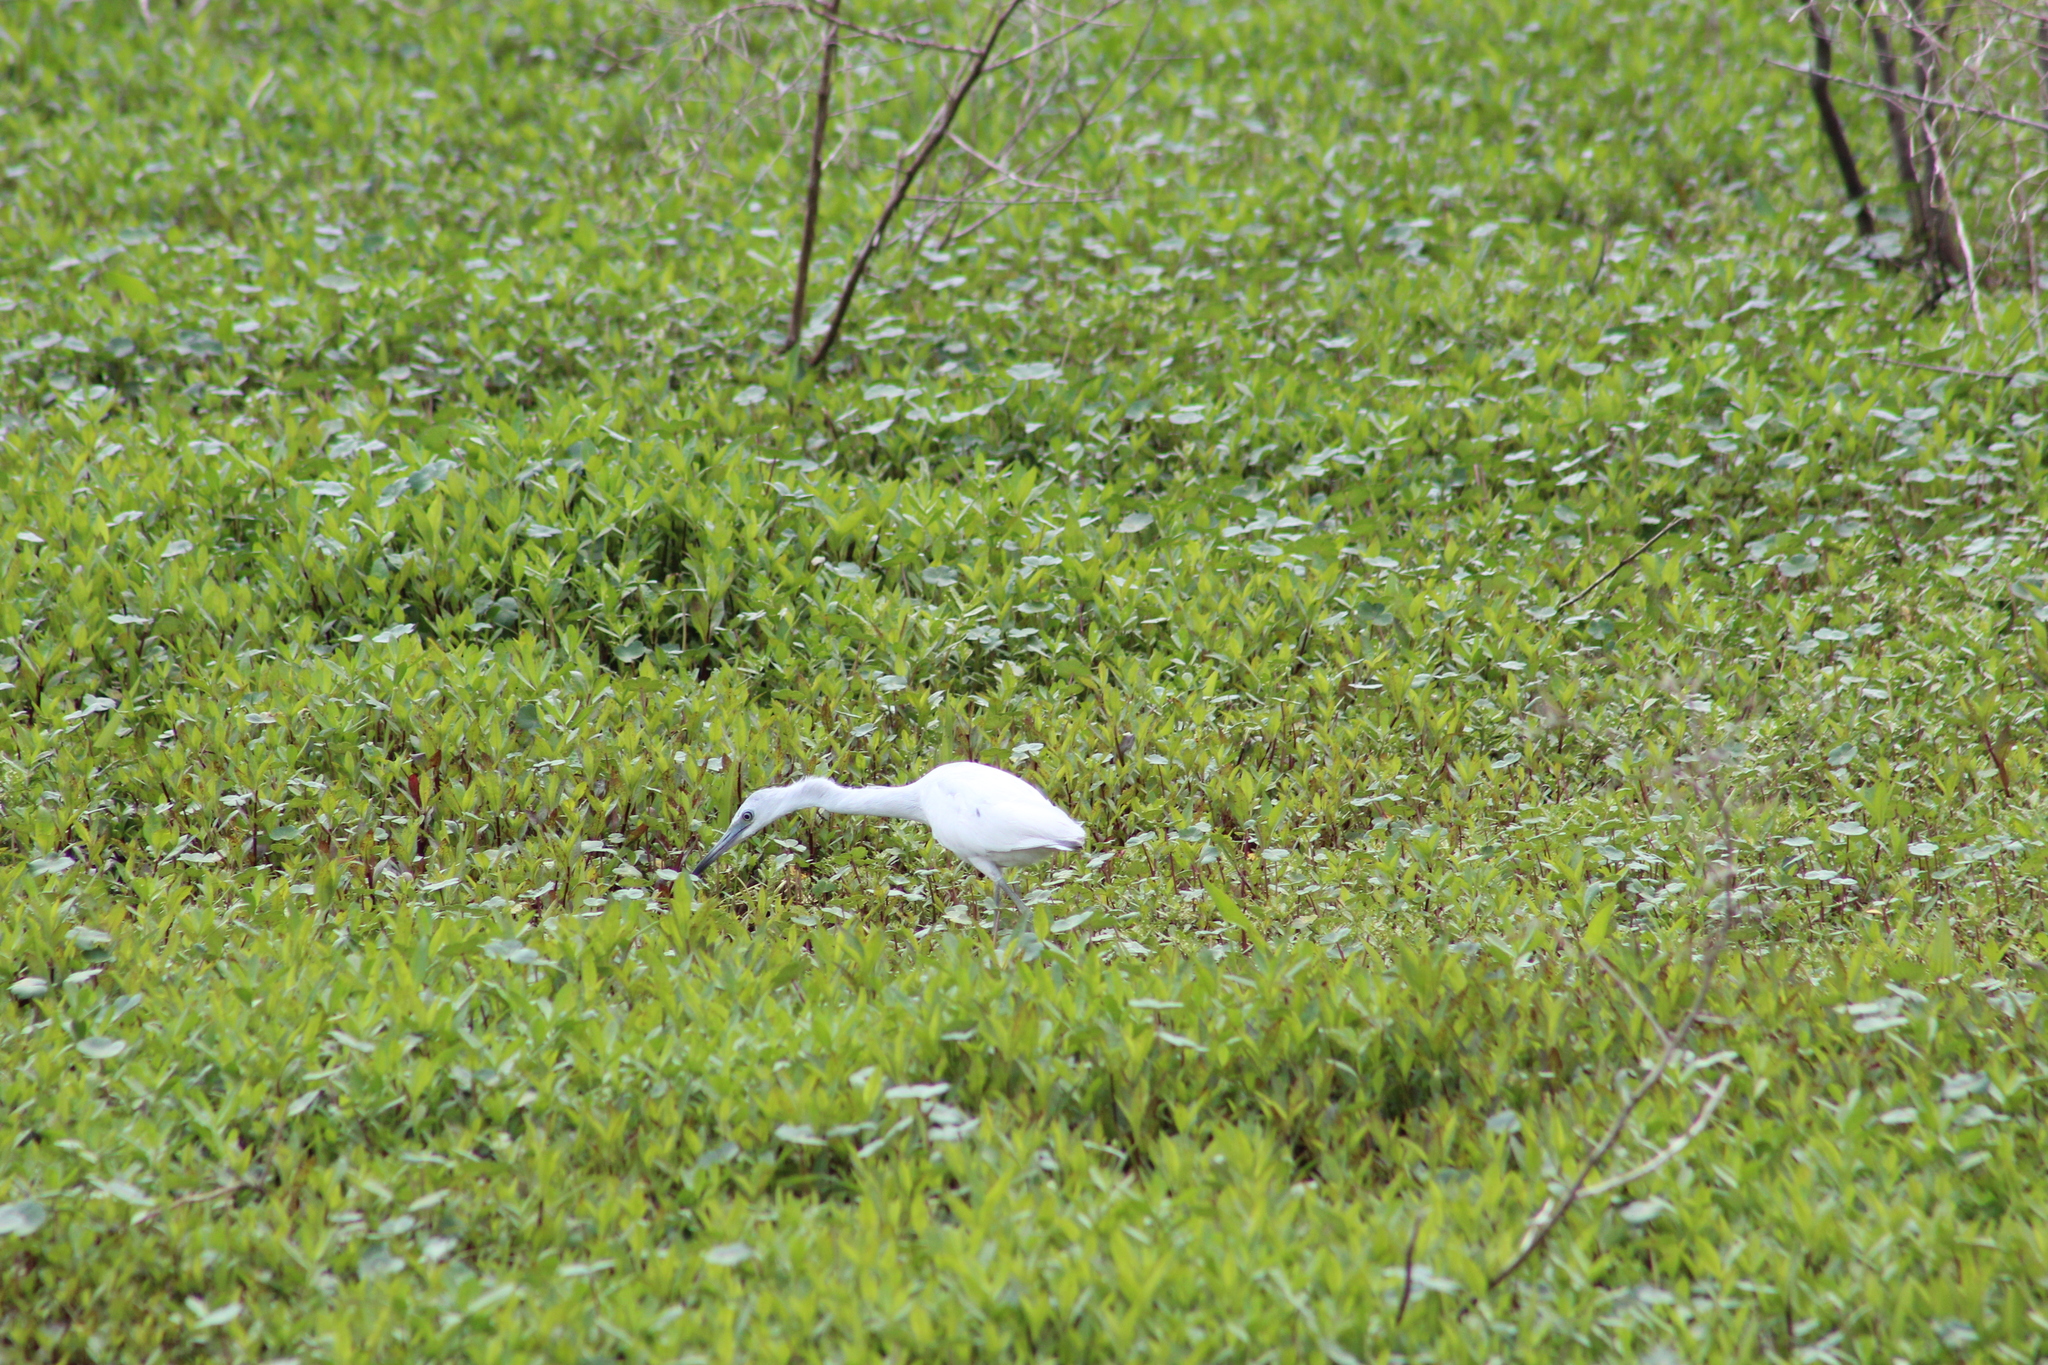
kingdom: Animalia
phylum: Chordata
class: Aves
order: Pelecaniformes
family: Ardeidae
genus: Egretta
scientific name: Egretta caerulea
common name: Little blue heron
